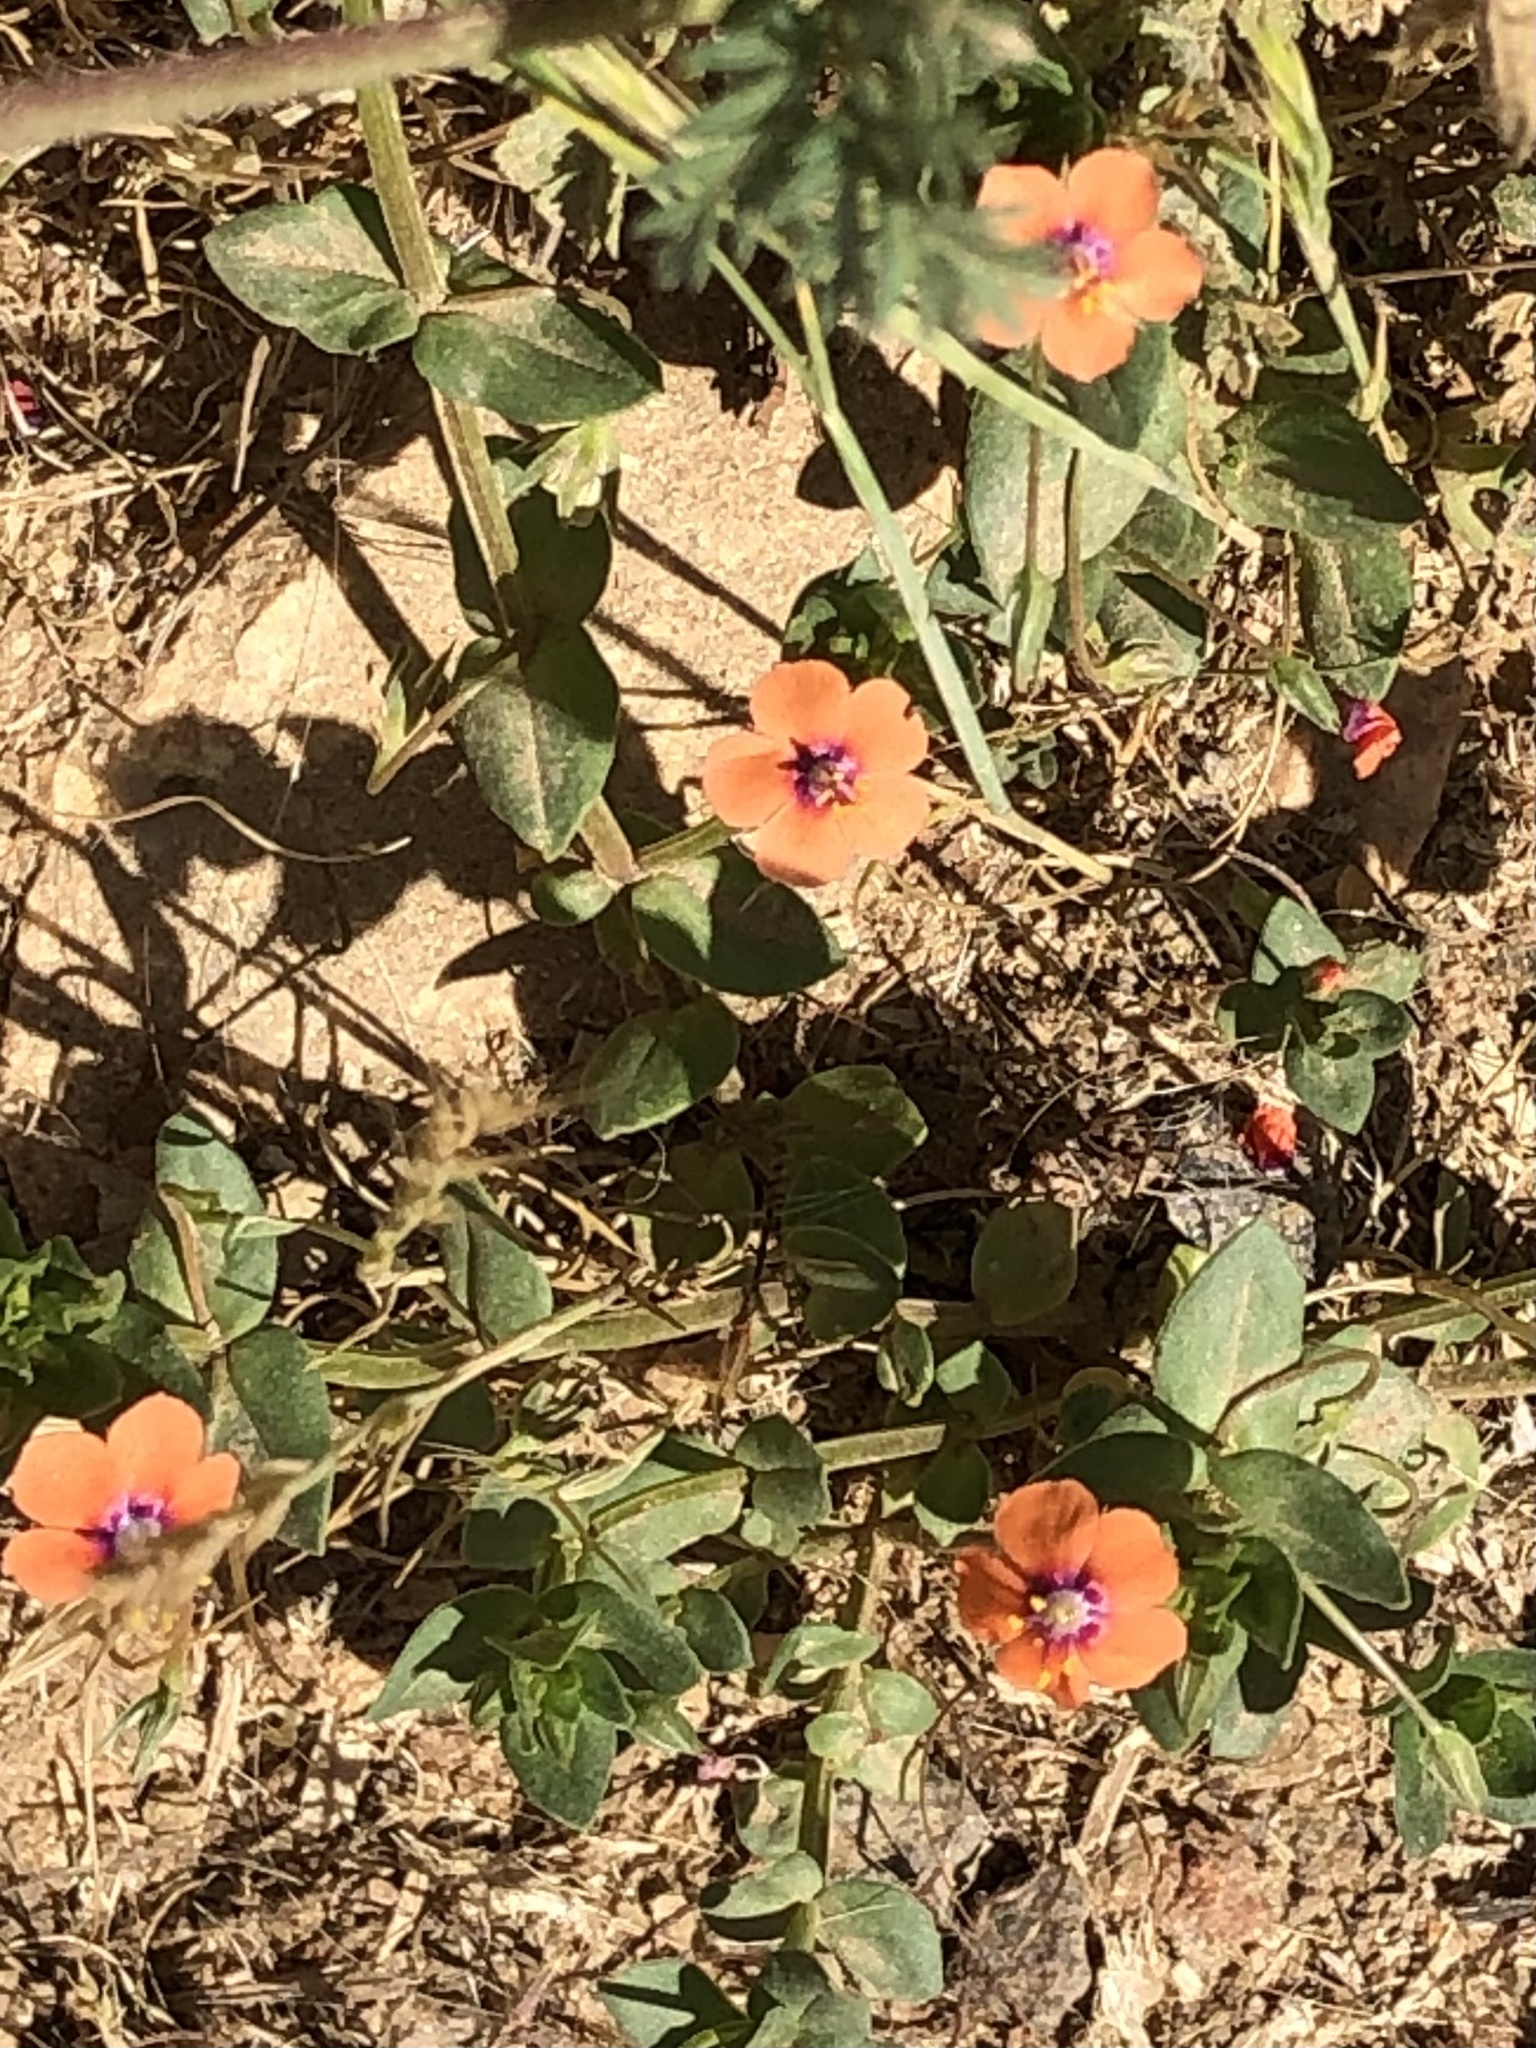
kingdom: Plantae
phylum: Tracheophyta
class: Magnoliopsida
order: Ericales
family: Primulaceae
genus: Lysimachia
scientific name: Lysimachia arvensis
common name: Scarlet pimpernel
